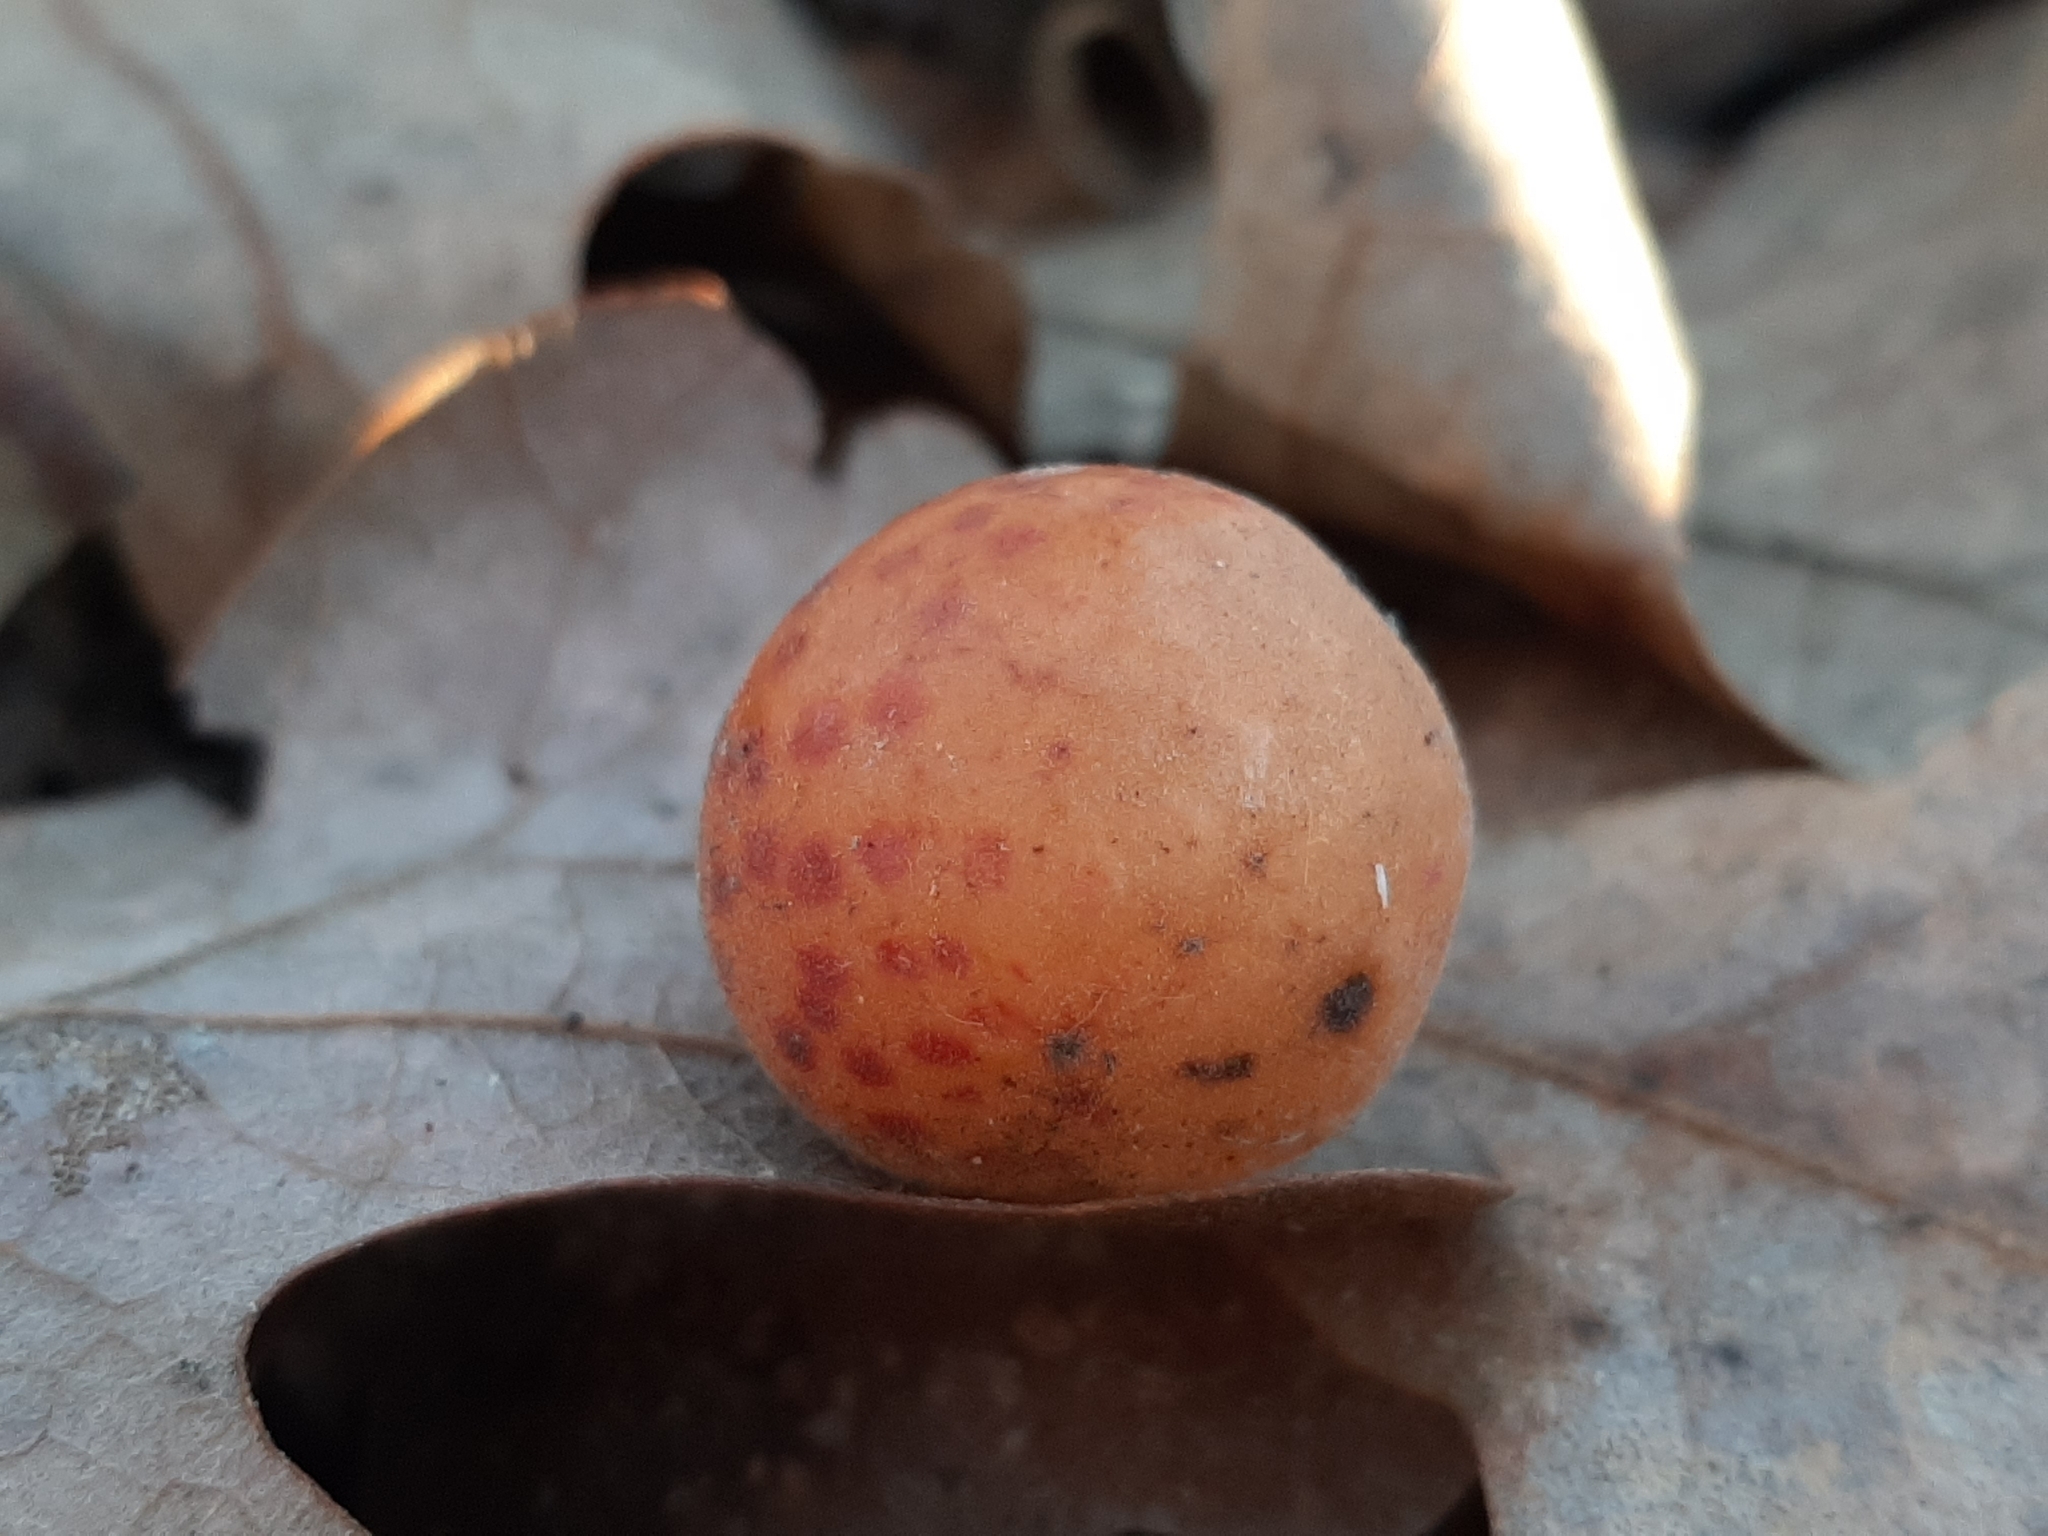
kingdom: Animalia
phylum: Arthropoda
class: Insecta
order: Hymenoptera
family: Cynipidae
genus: Atrusca
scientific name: Atrusca
